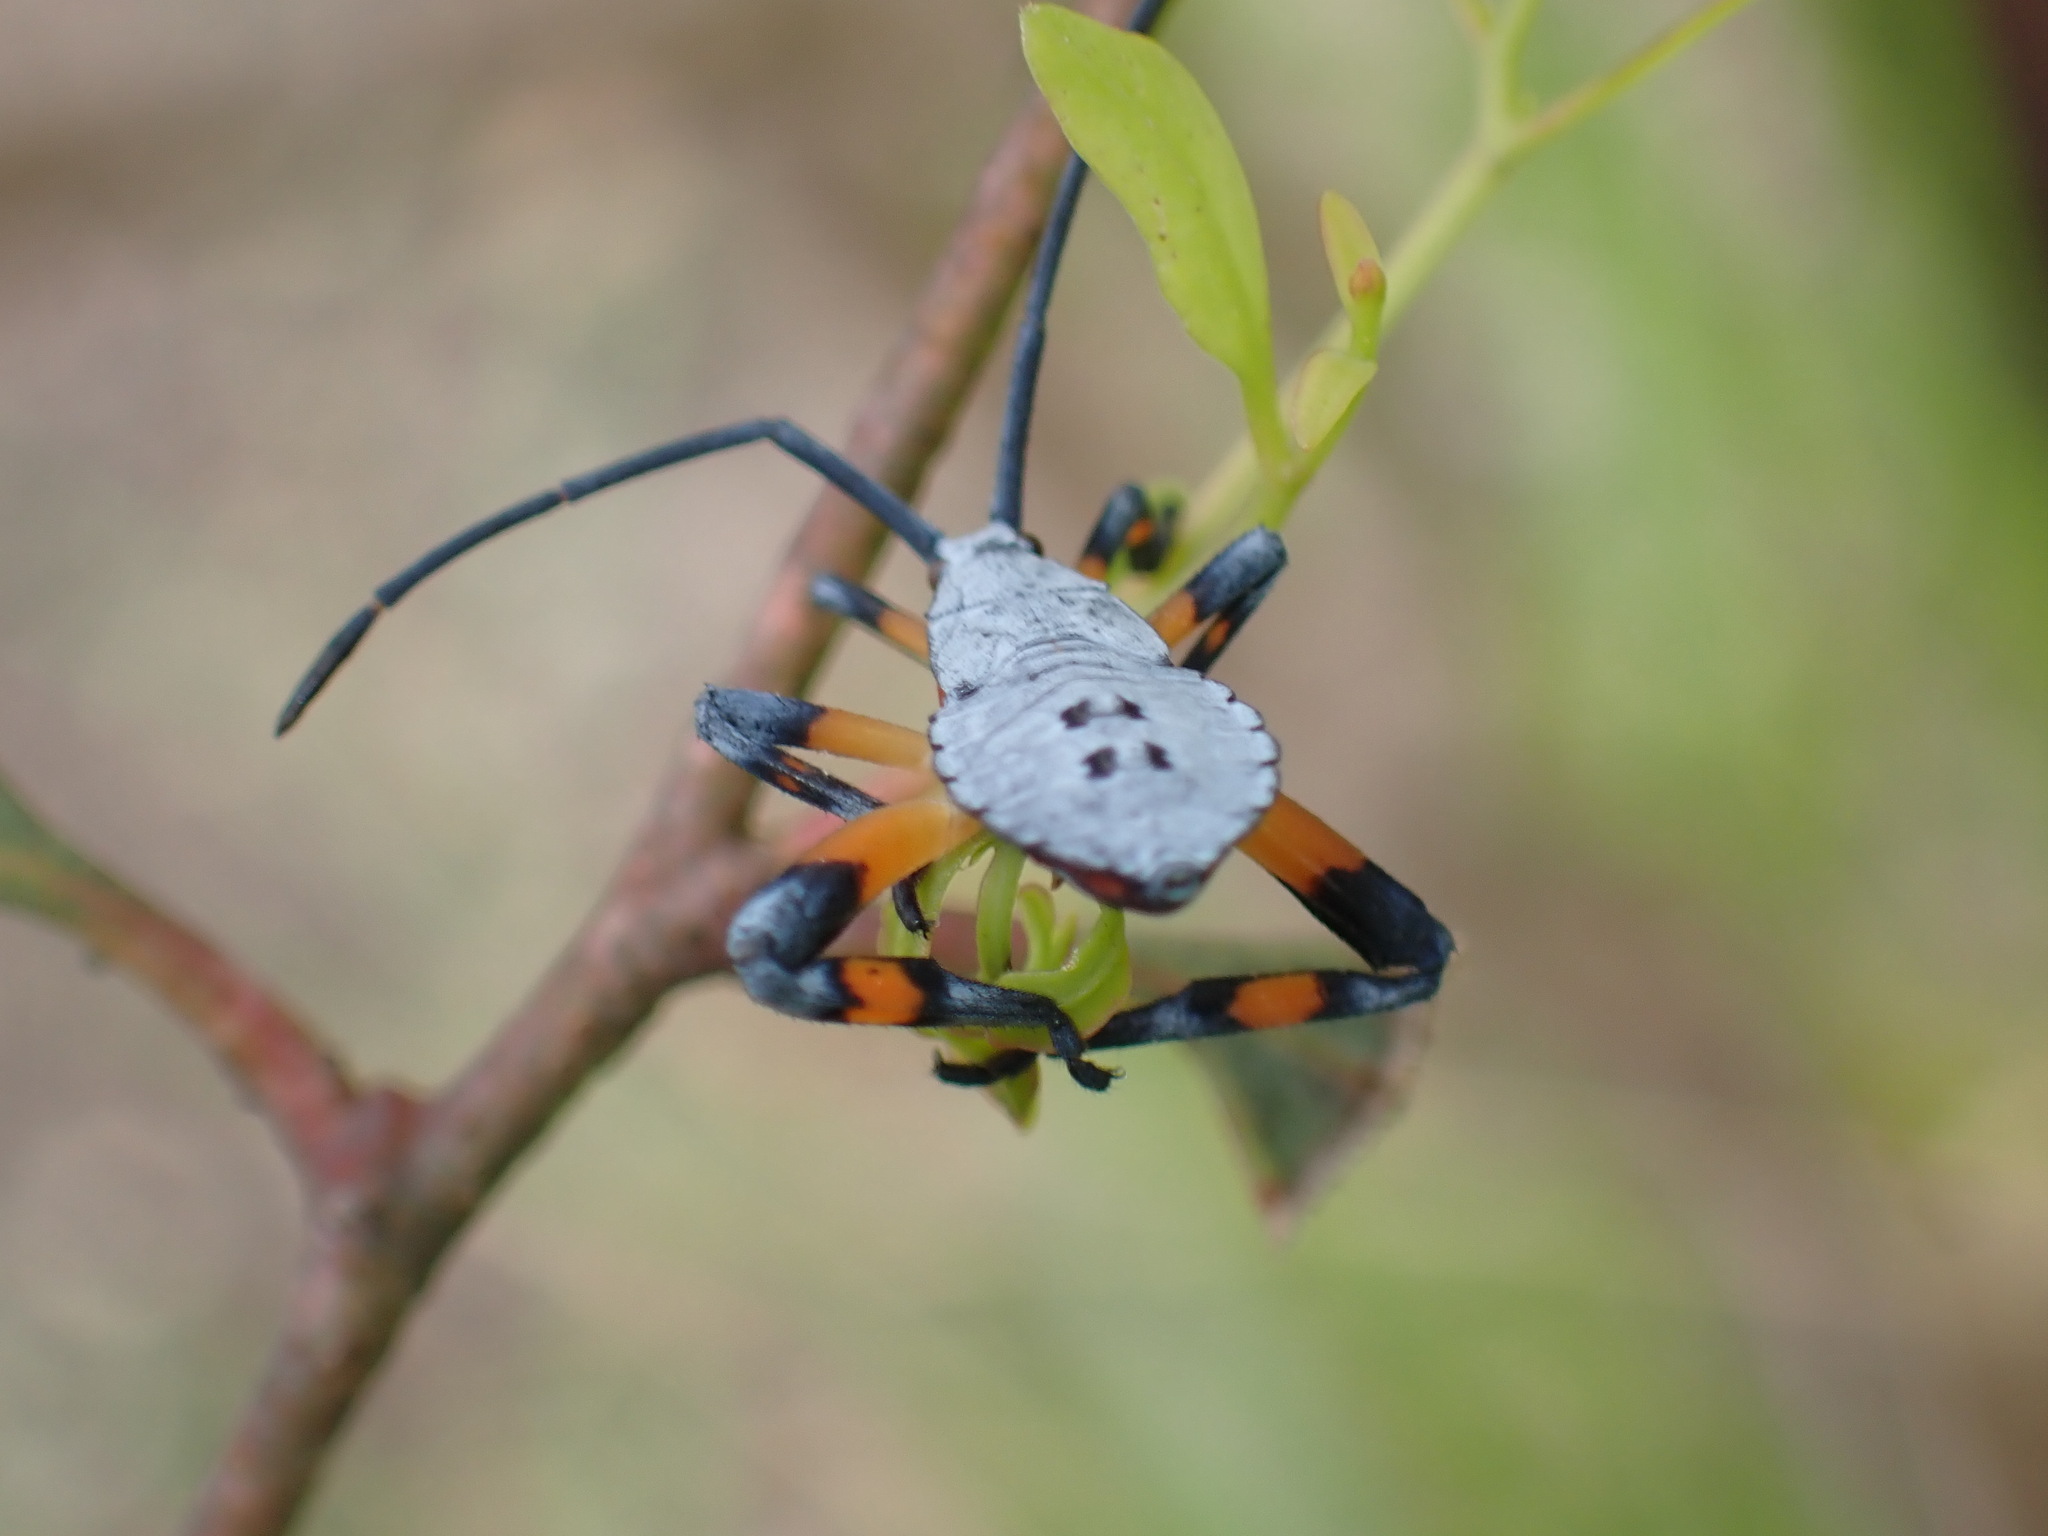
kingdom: Animalia
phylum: Arthropoda
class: Insecta
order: Hemiptera
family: Coreidae
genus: Amorbus
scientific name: Amorbus robustus
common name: Common gum-tree bug
